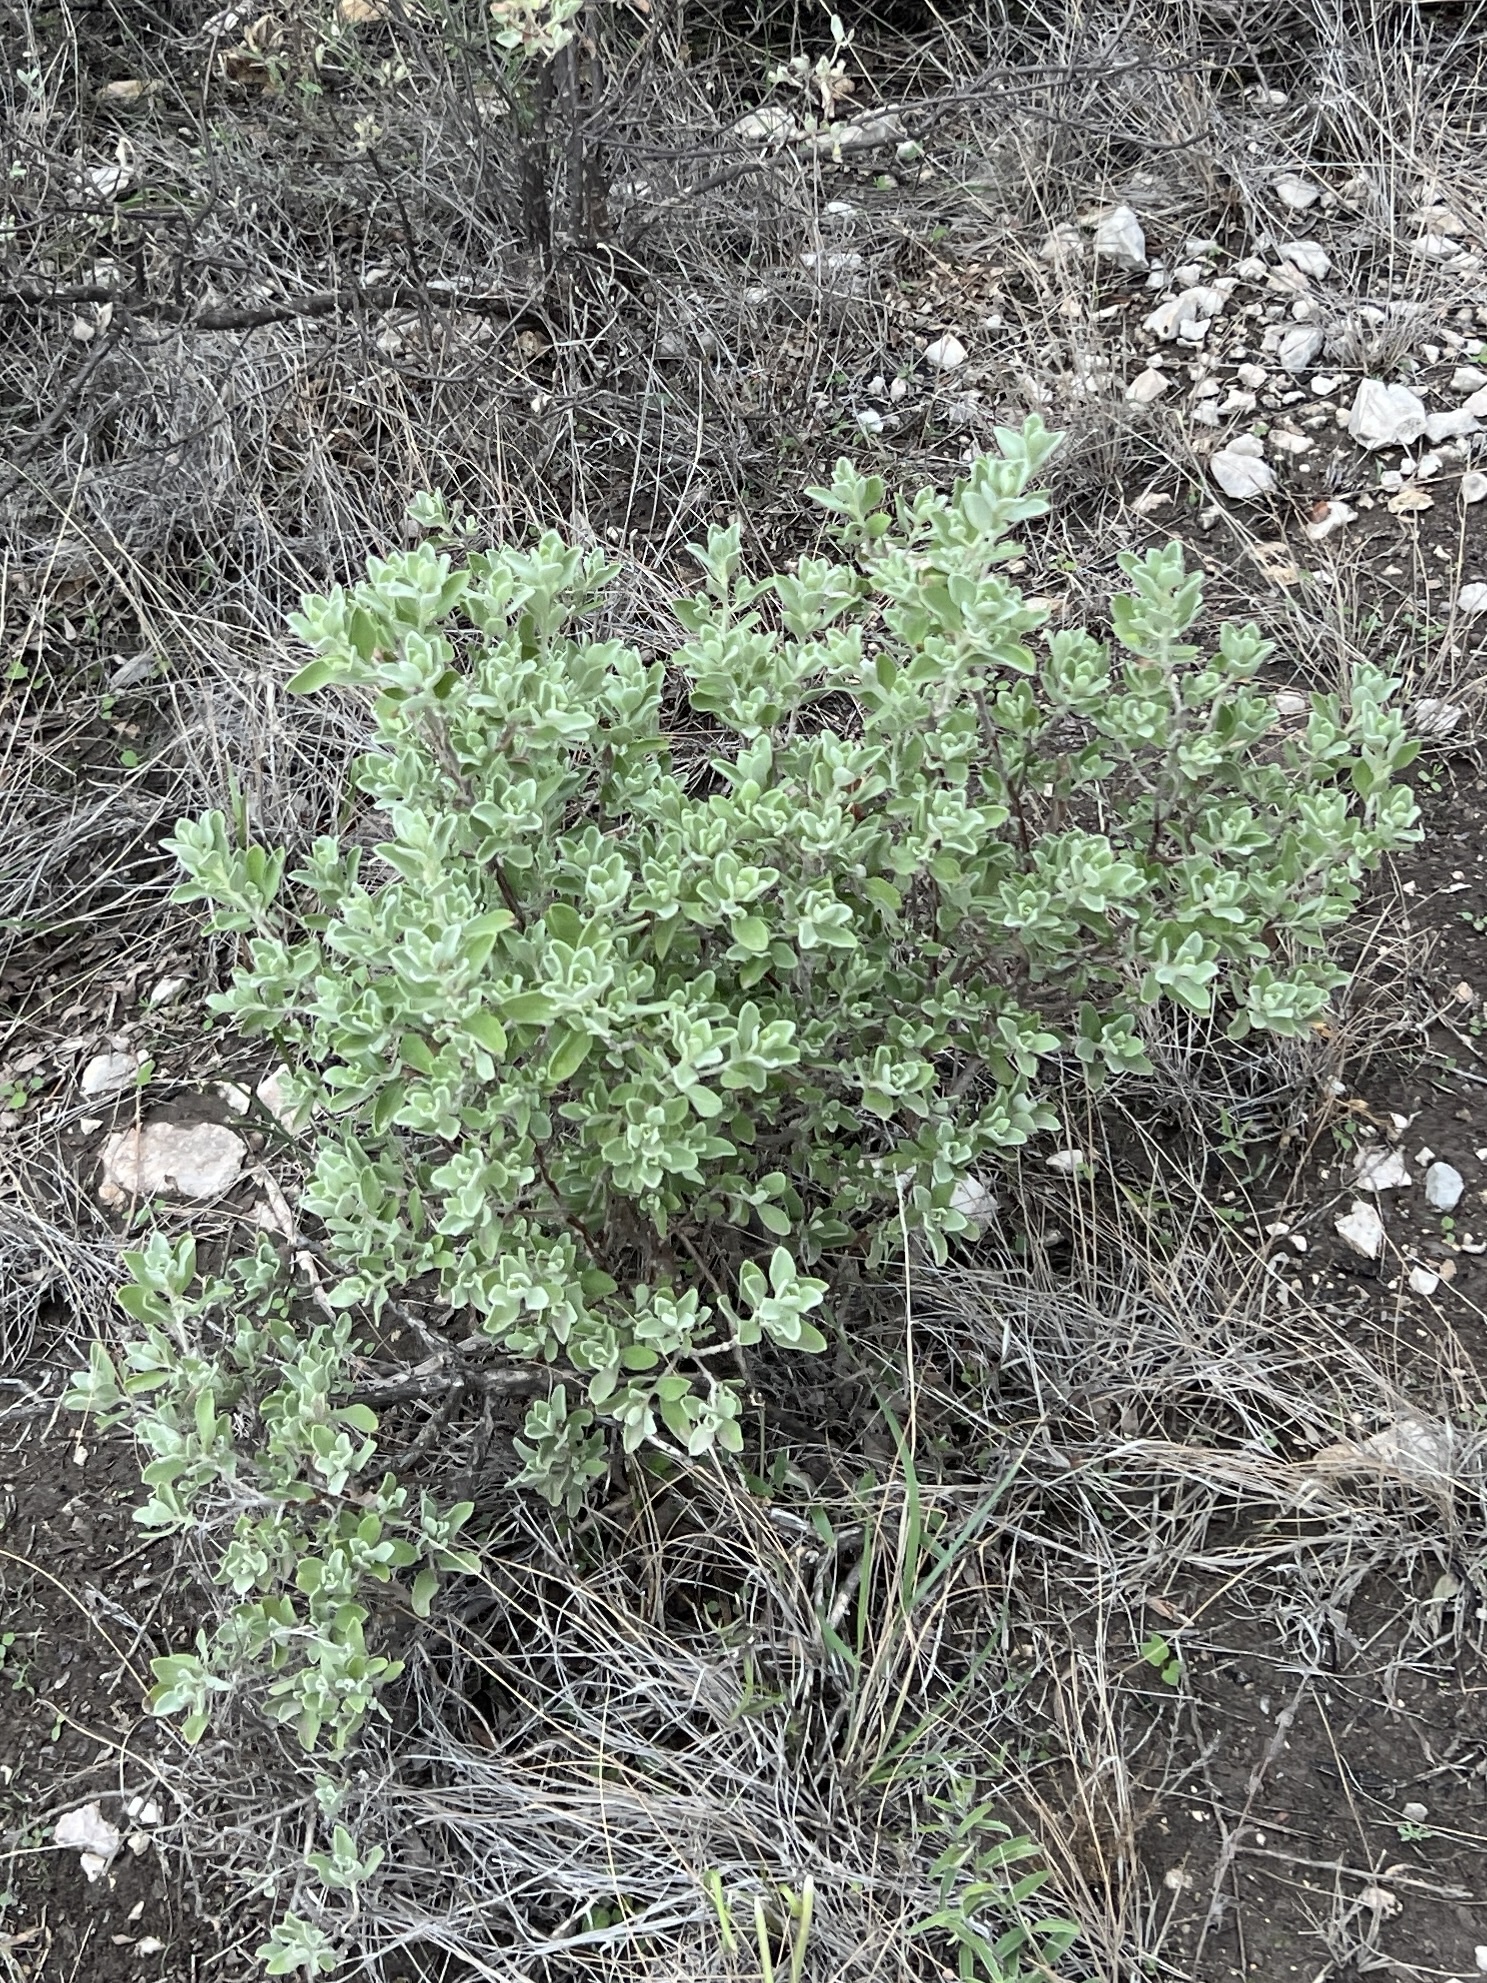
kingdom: Plantae
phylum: Tracheophyta
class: Magnoliopsida
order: Lamiales
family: Scrophulariaceae
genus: Leucophyllum
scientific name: Leucophyllum frutescens
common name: Texas silverleaf
